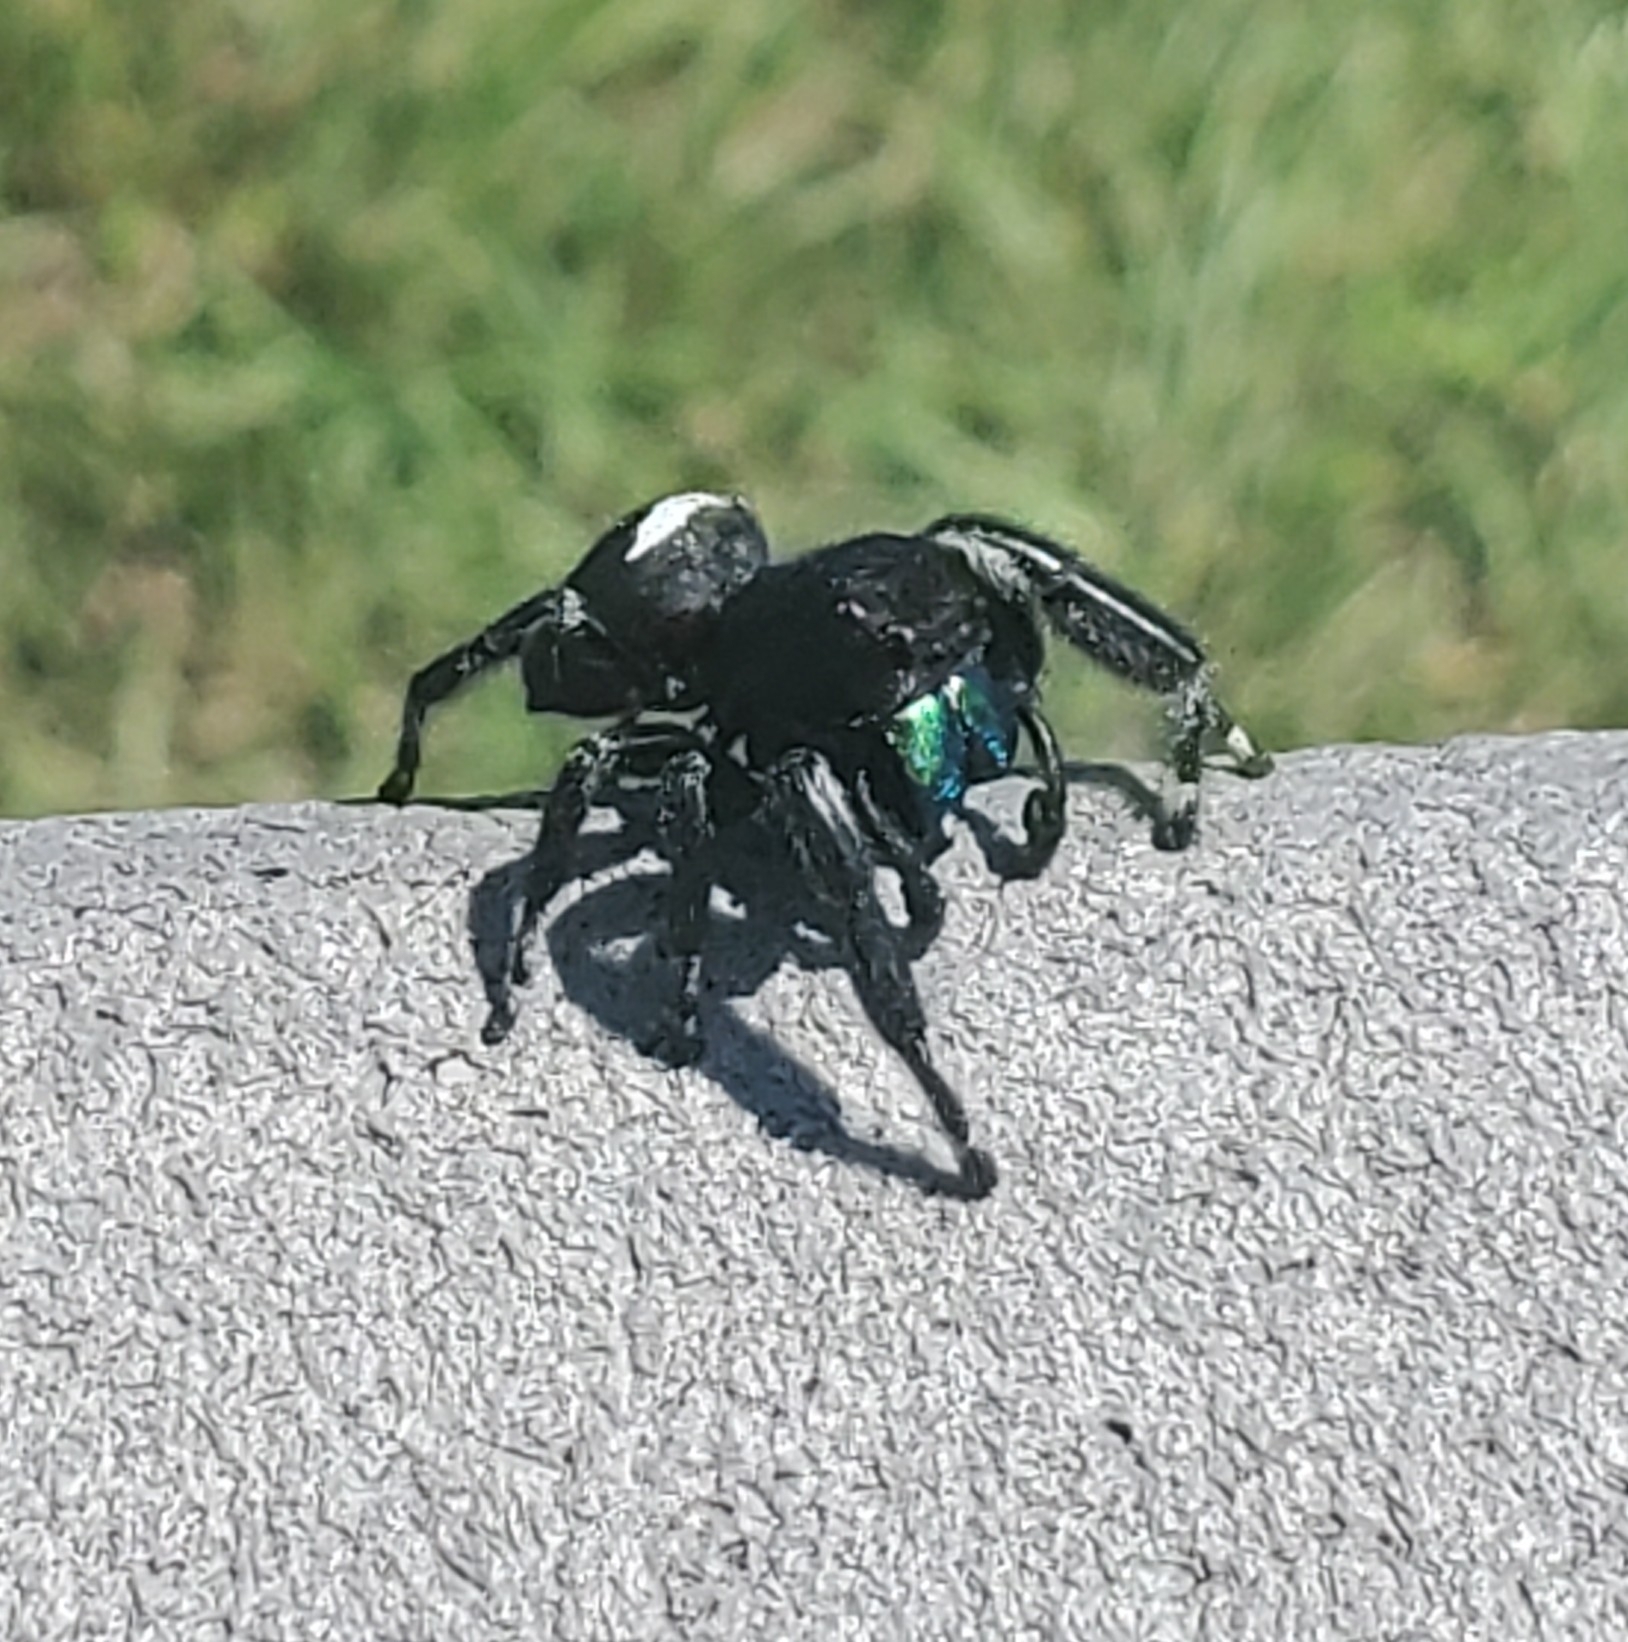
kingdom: Animalia
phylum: Arthropoda
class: Arachnida
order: Araneae
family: Salticidae
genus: Phidippus
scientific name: Phidippus regius
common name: Regal jumper
